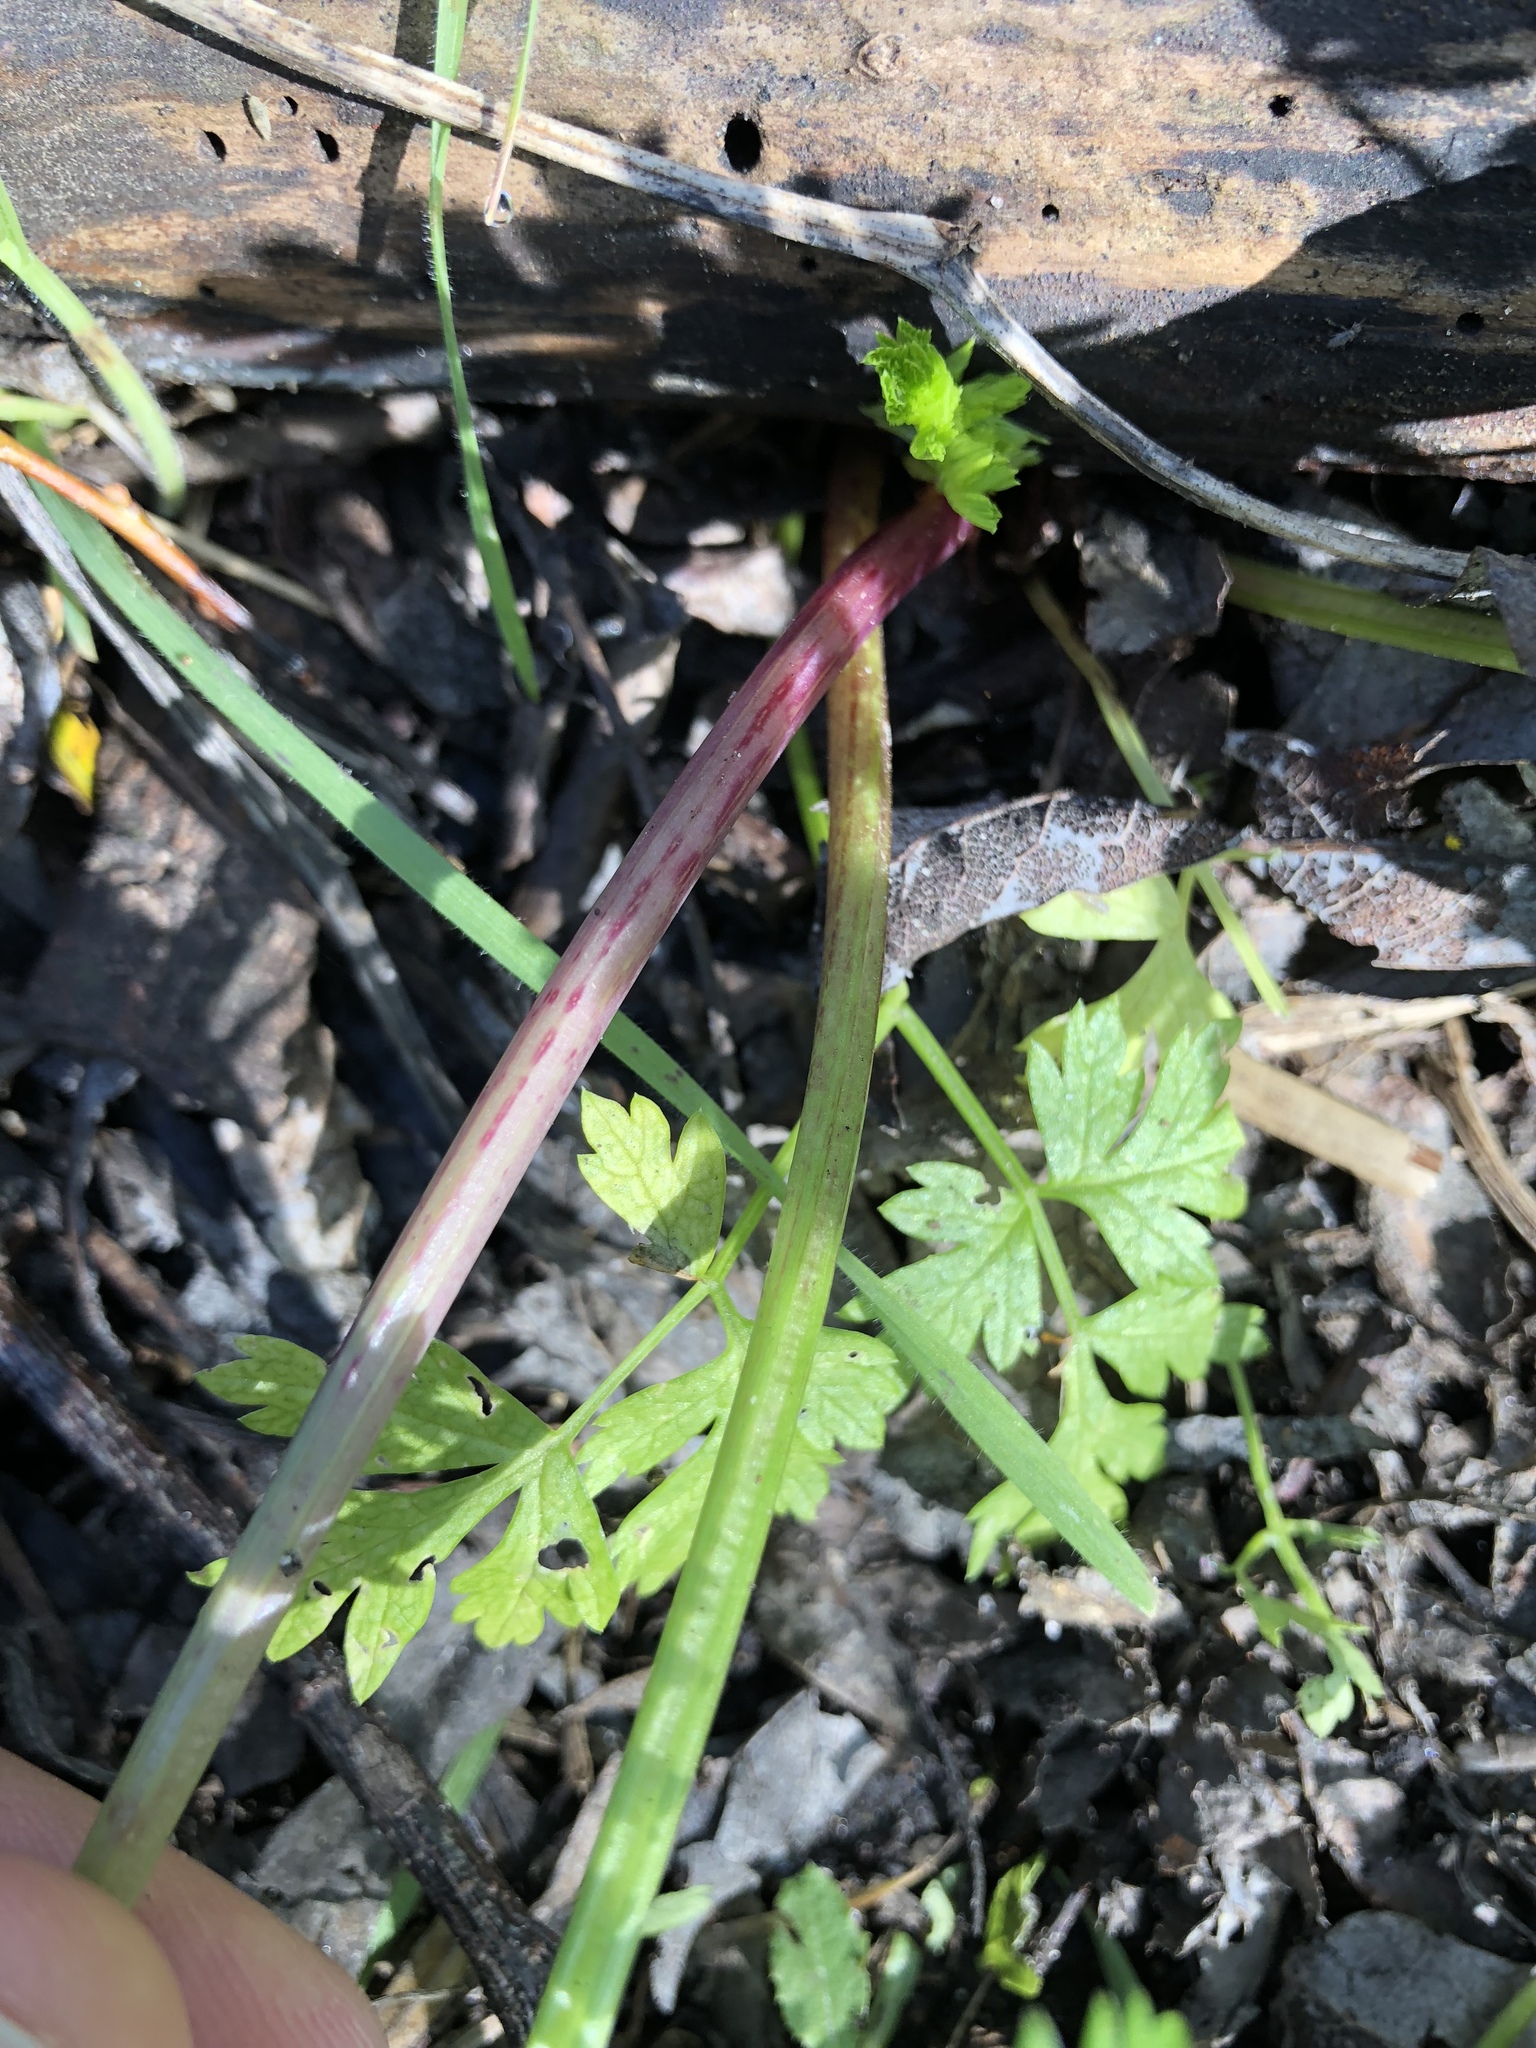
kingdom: Plantae
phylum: Tracheophyta
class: Magnoliopsida
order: Apiales
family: Apiaceae
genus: Conium
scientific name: Conium maculatum
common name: Hemlock
